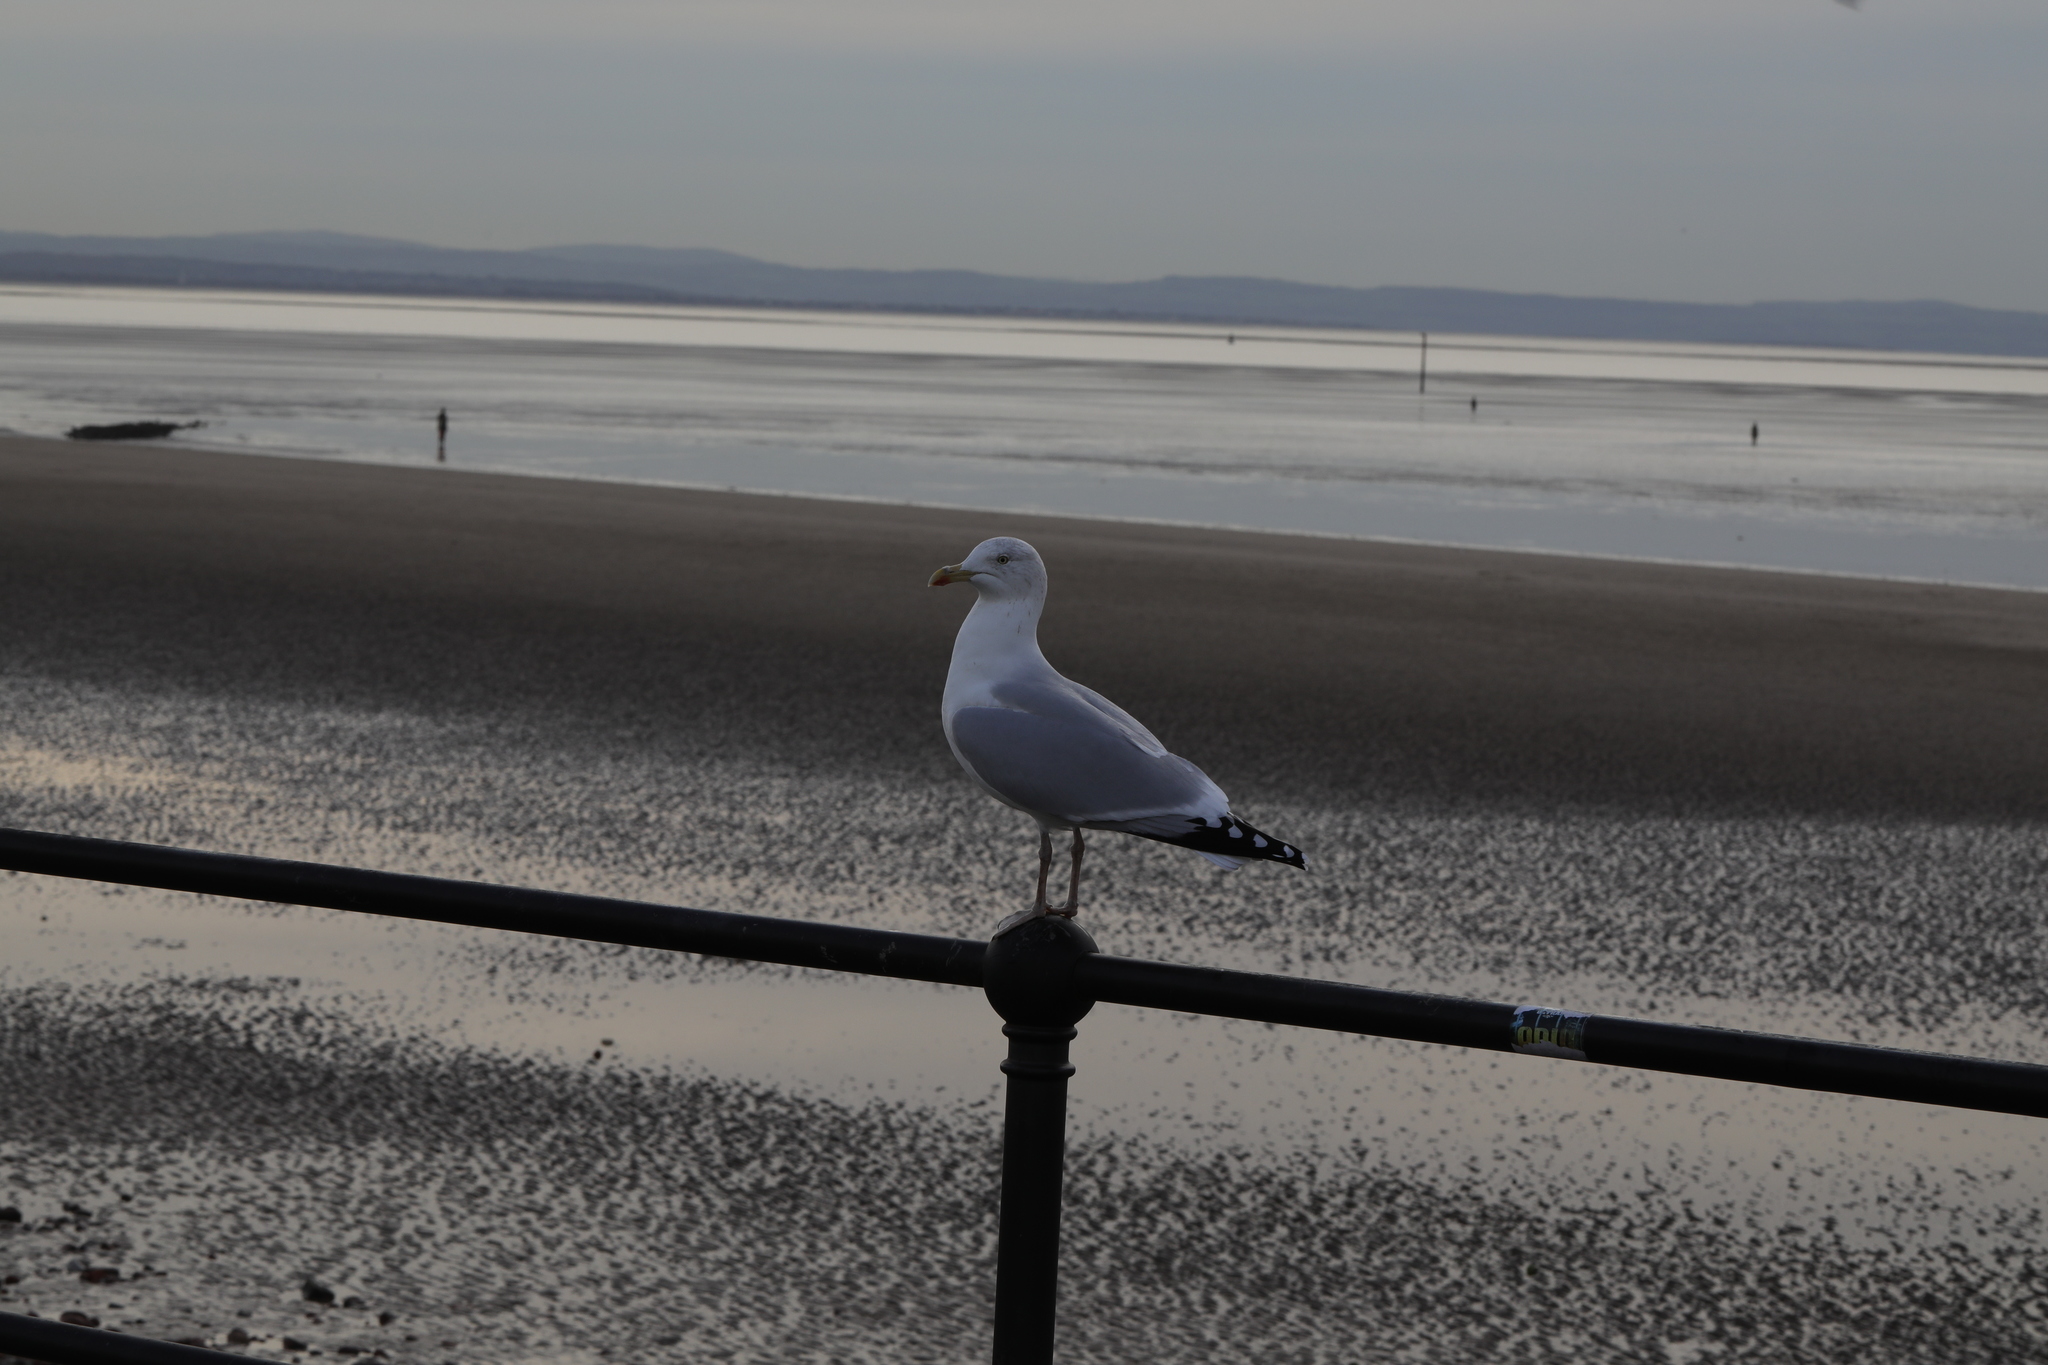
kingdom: Animalia
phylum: Chordata
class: Aves
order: Charadriiformes
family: Laridae
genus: Larus
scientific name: Larus argentatus
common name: Herring gull
